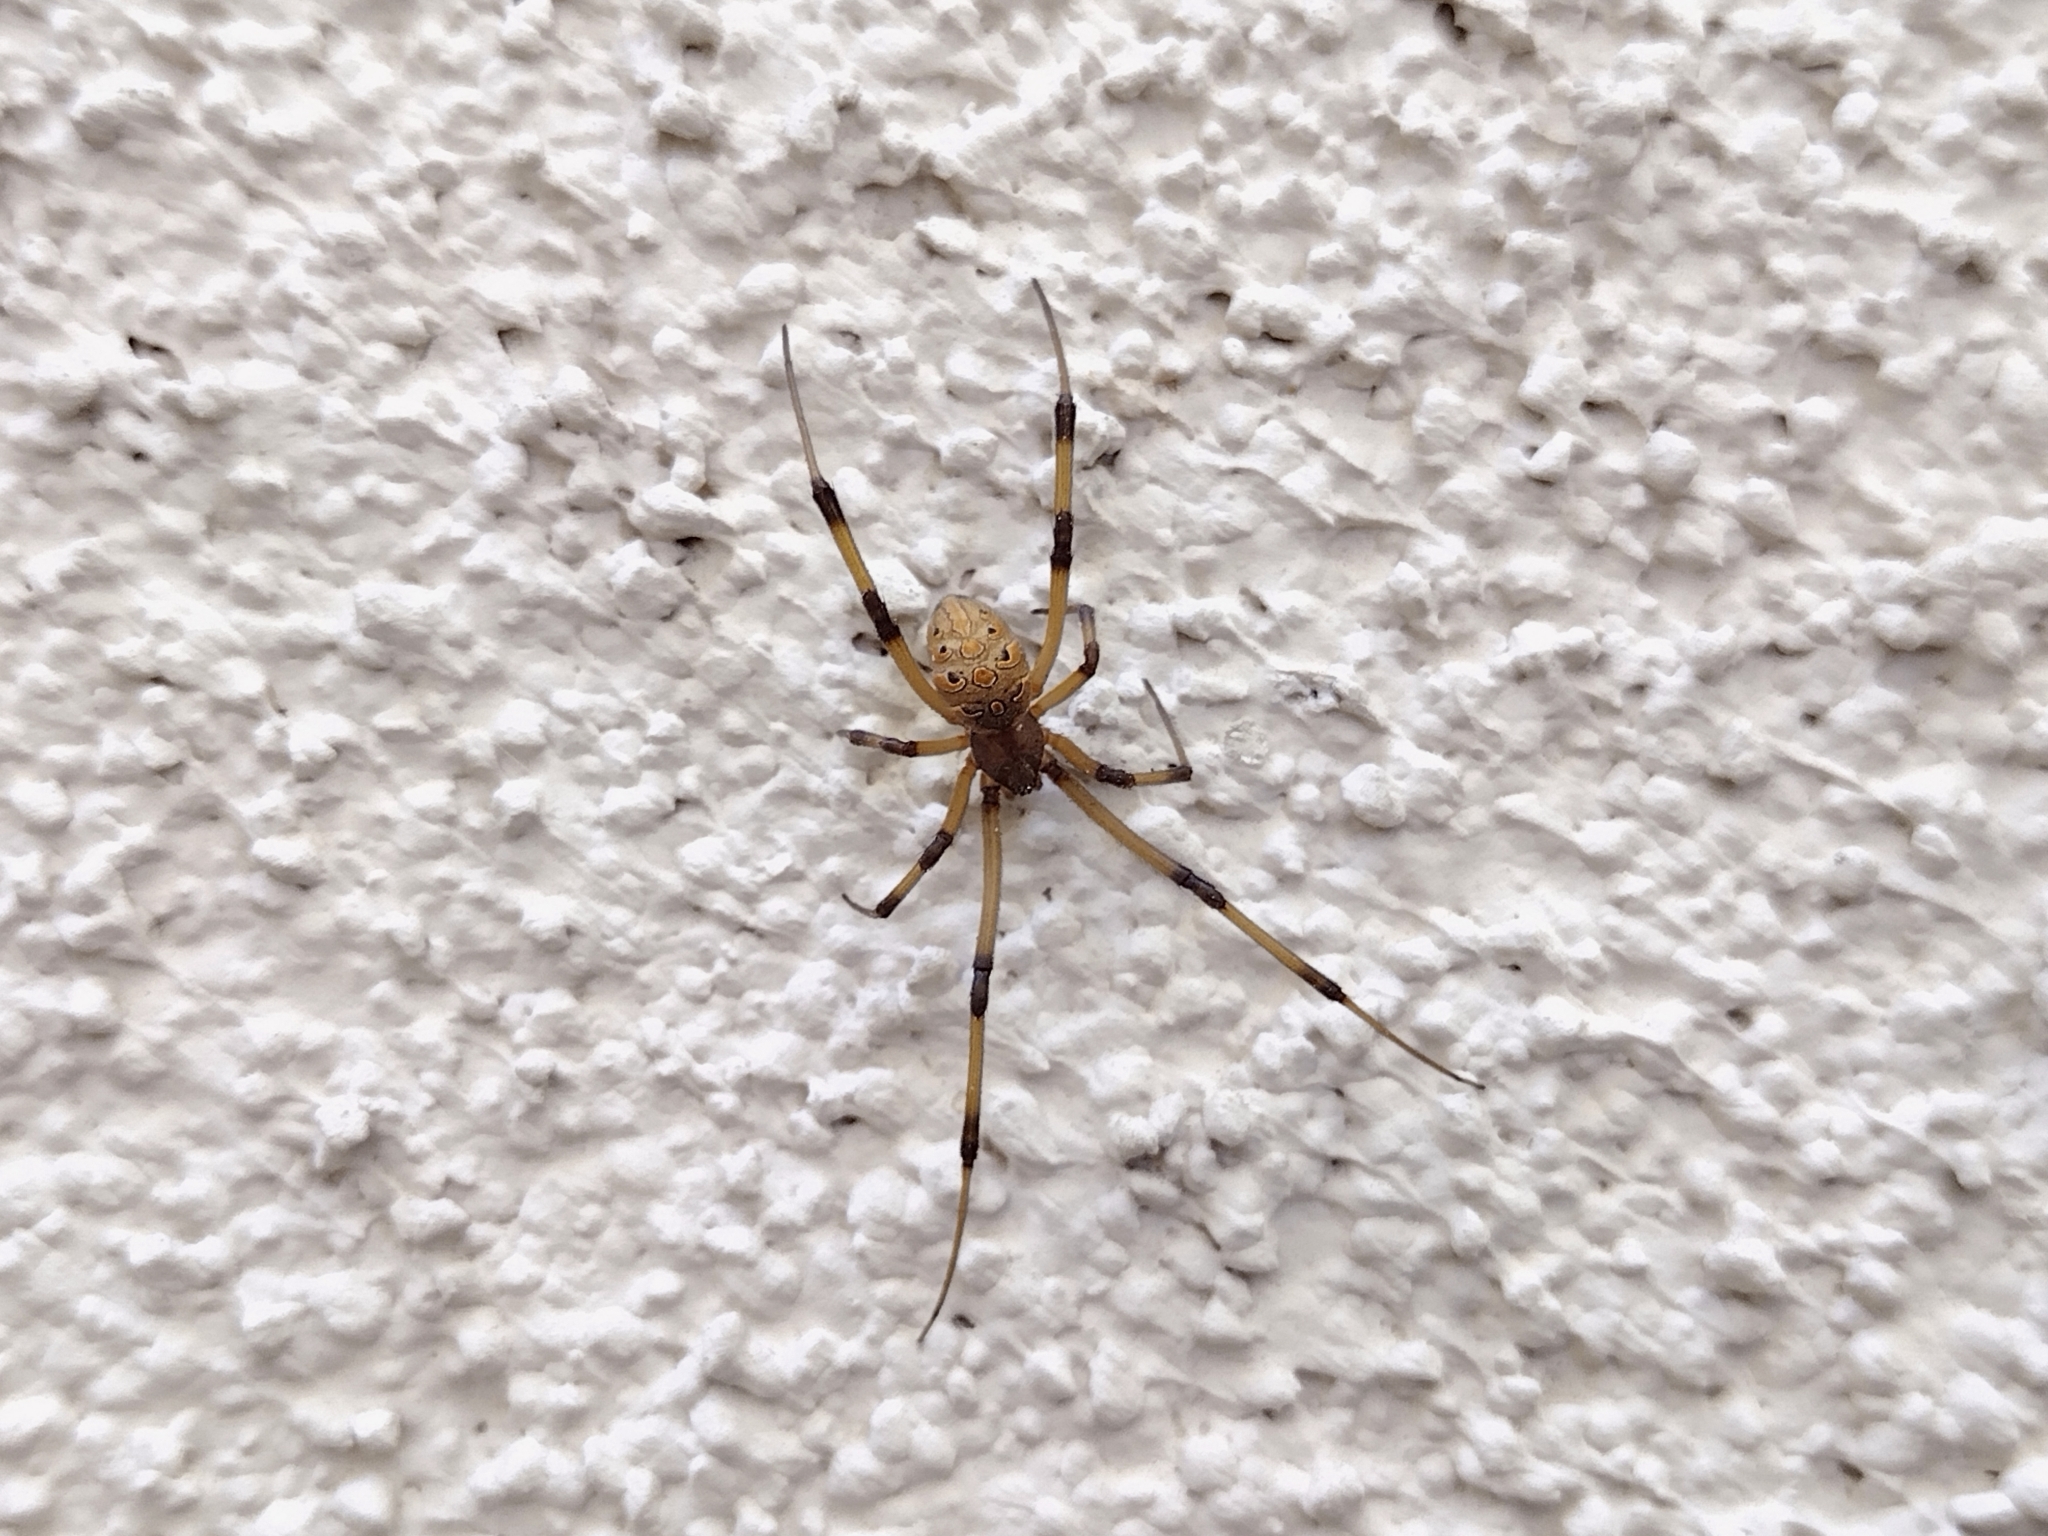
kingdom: Animalia
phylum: Arthropoda
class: Arachnida
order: Araneae
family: Theridiidae
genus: Latrodectus
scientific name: Latrodectus geometricus
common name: Brown widow spider
